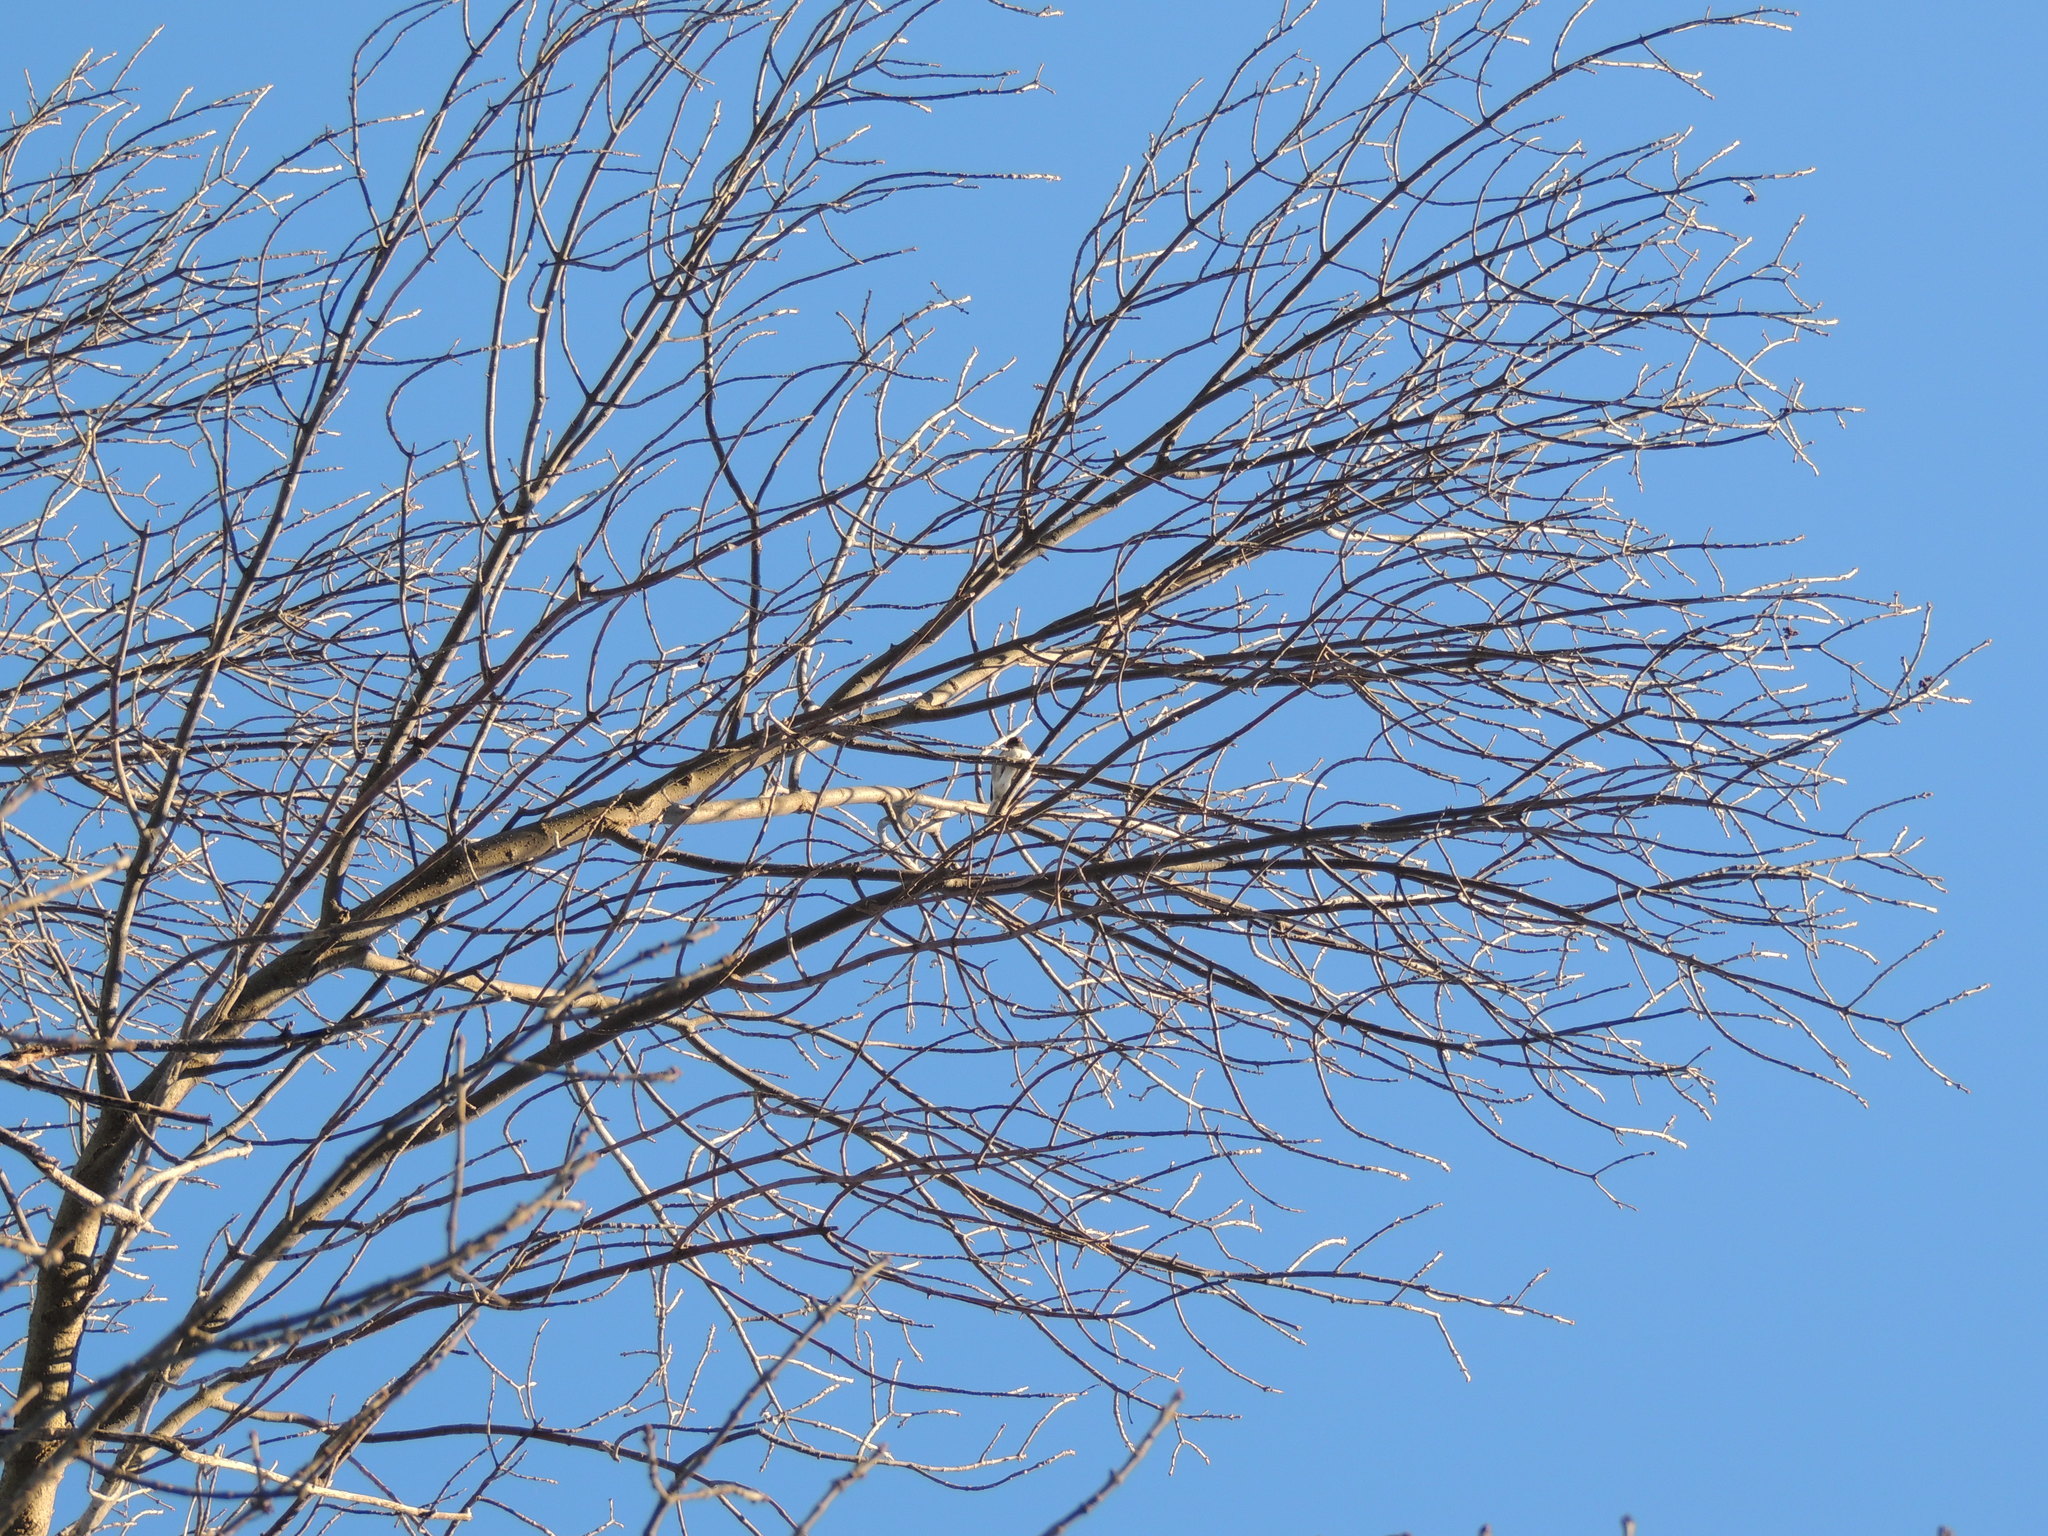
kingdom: Animalia
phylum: Chordata
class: Aves
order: Passeriformes
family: Passerellidae
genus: Junco
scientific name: Junco hyemalis
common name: Dark-eyed junco
